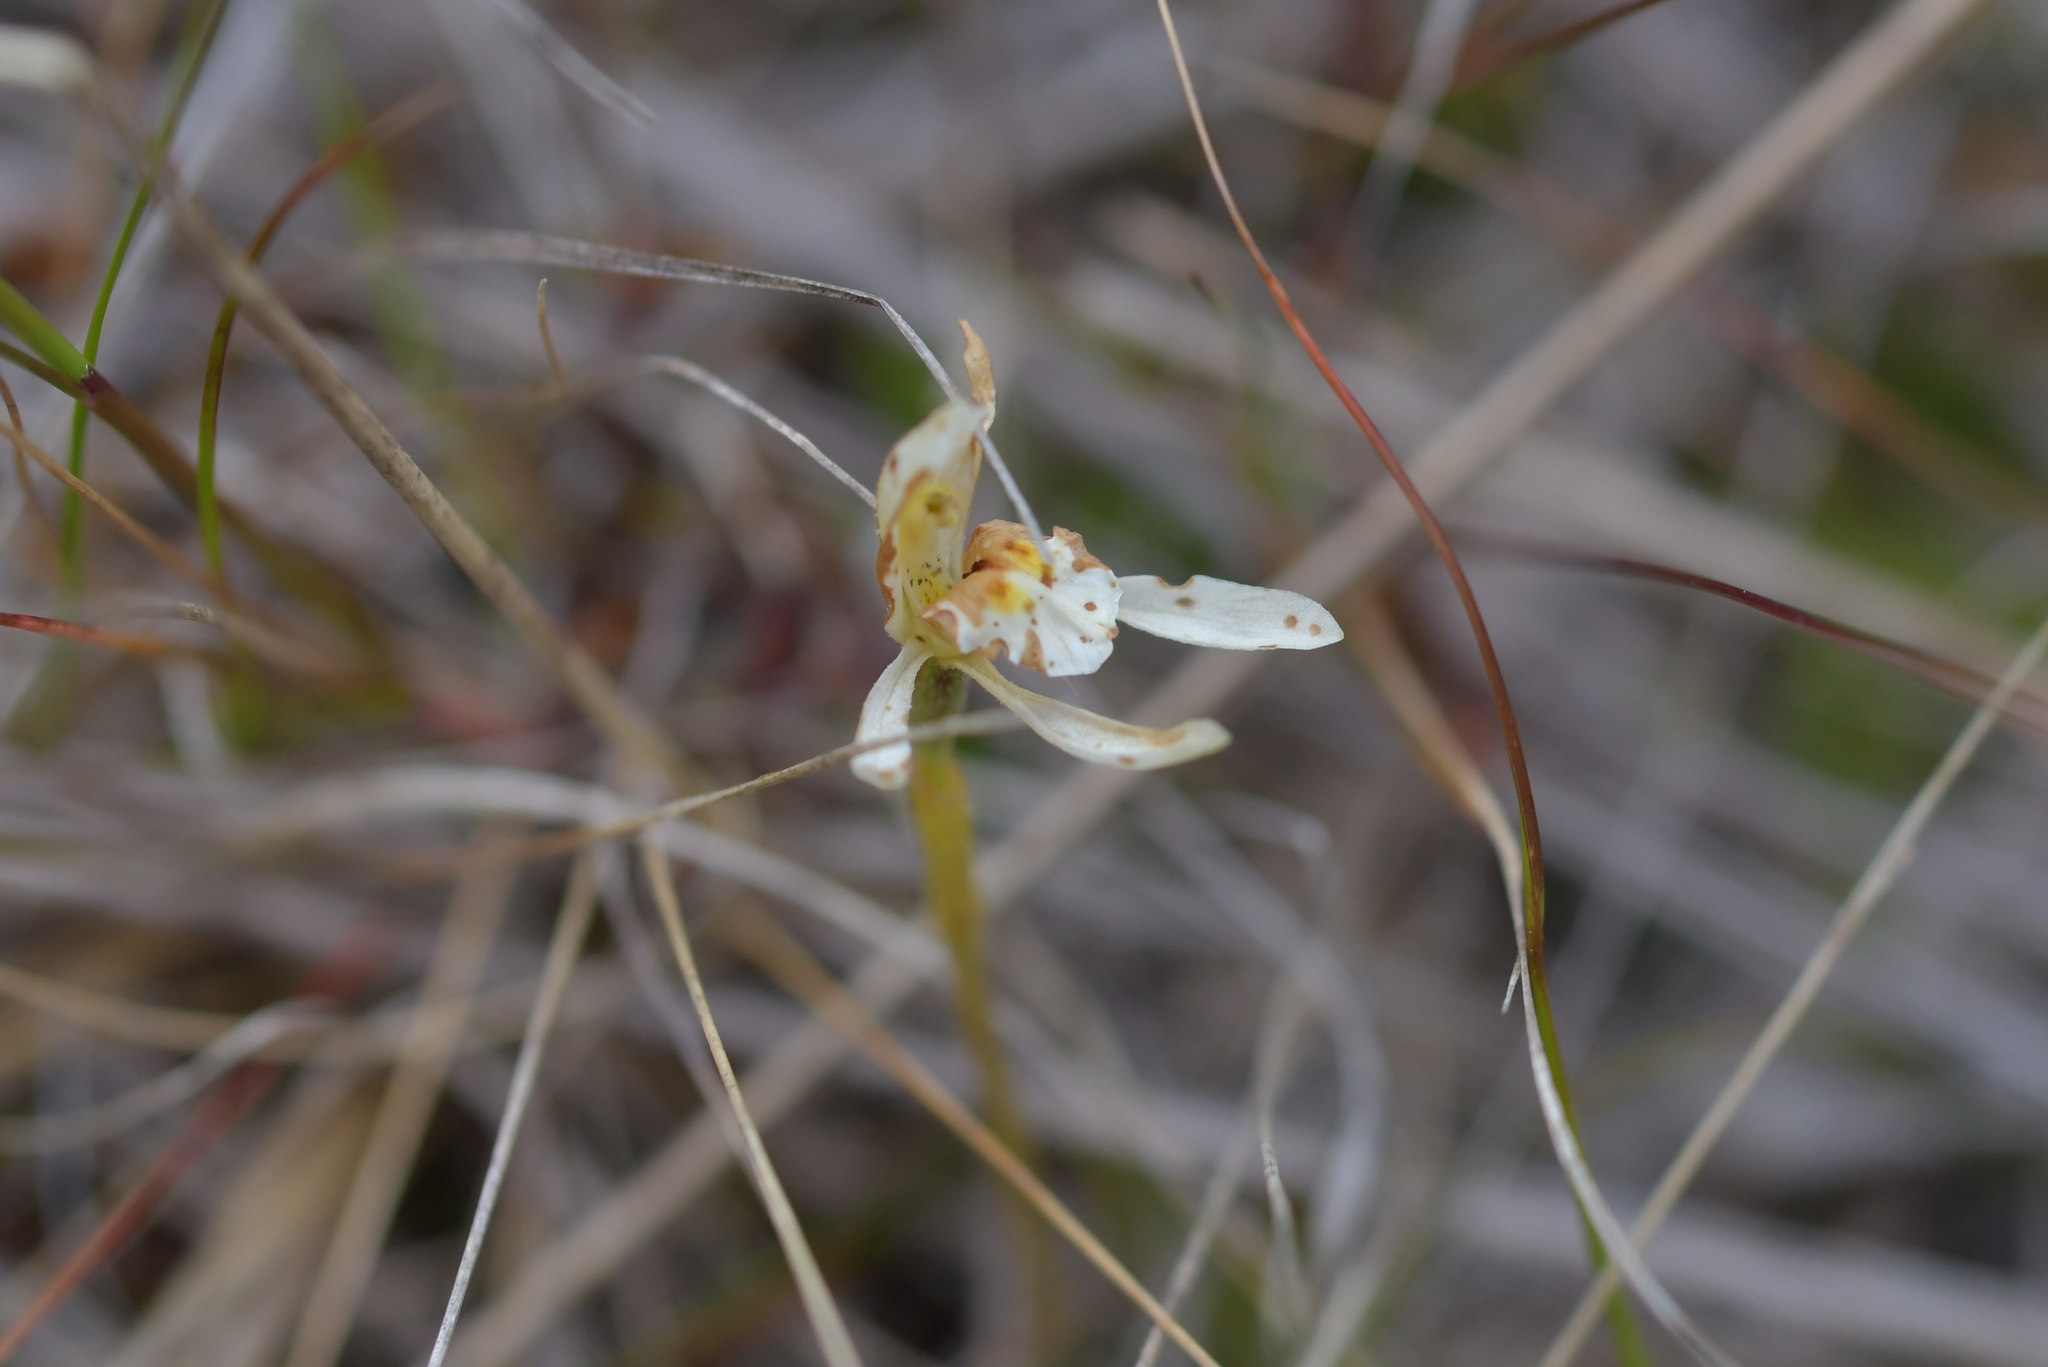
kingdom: Plantae
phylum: Tracheophyta
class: Liliopsida
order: Asparagales
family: Orchidaceae
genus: Aporostylis
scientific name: Aporostylis bifolia
